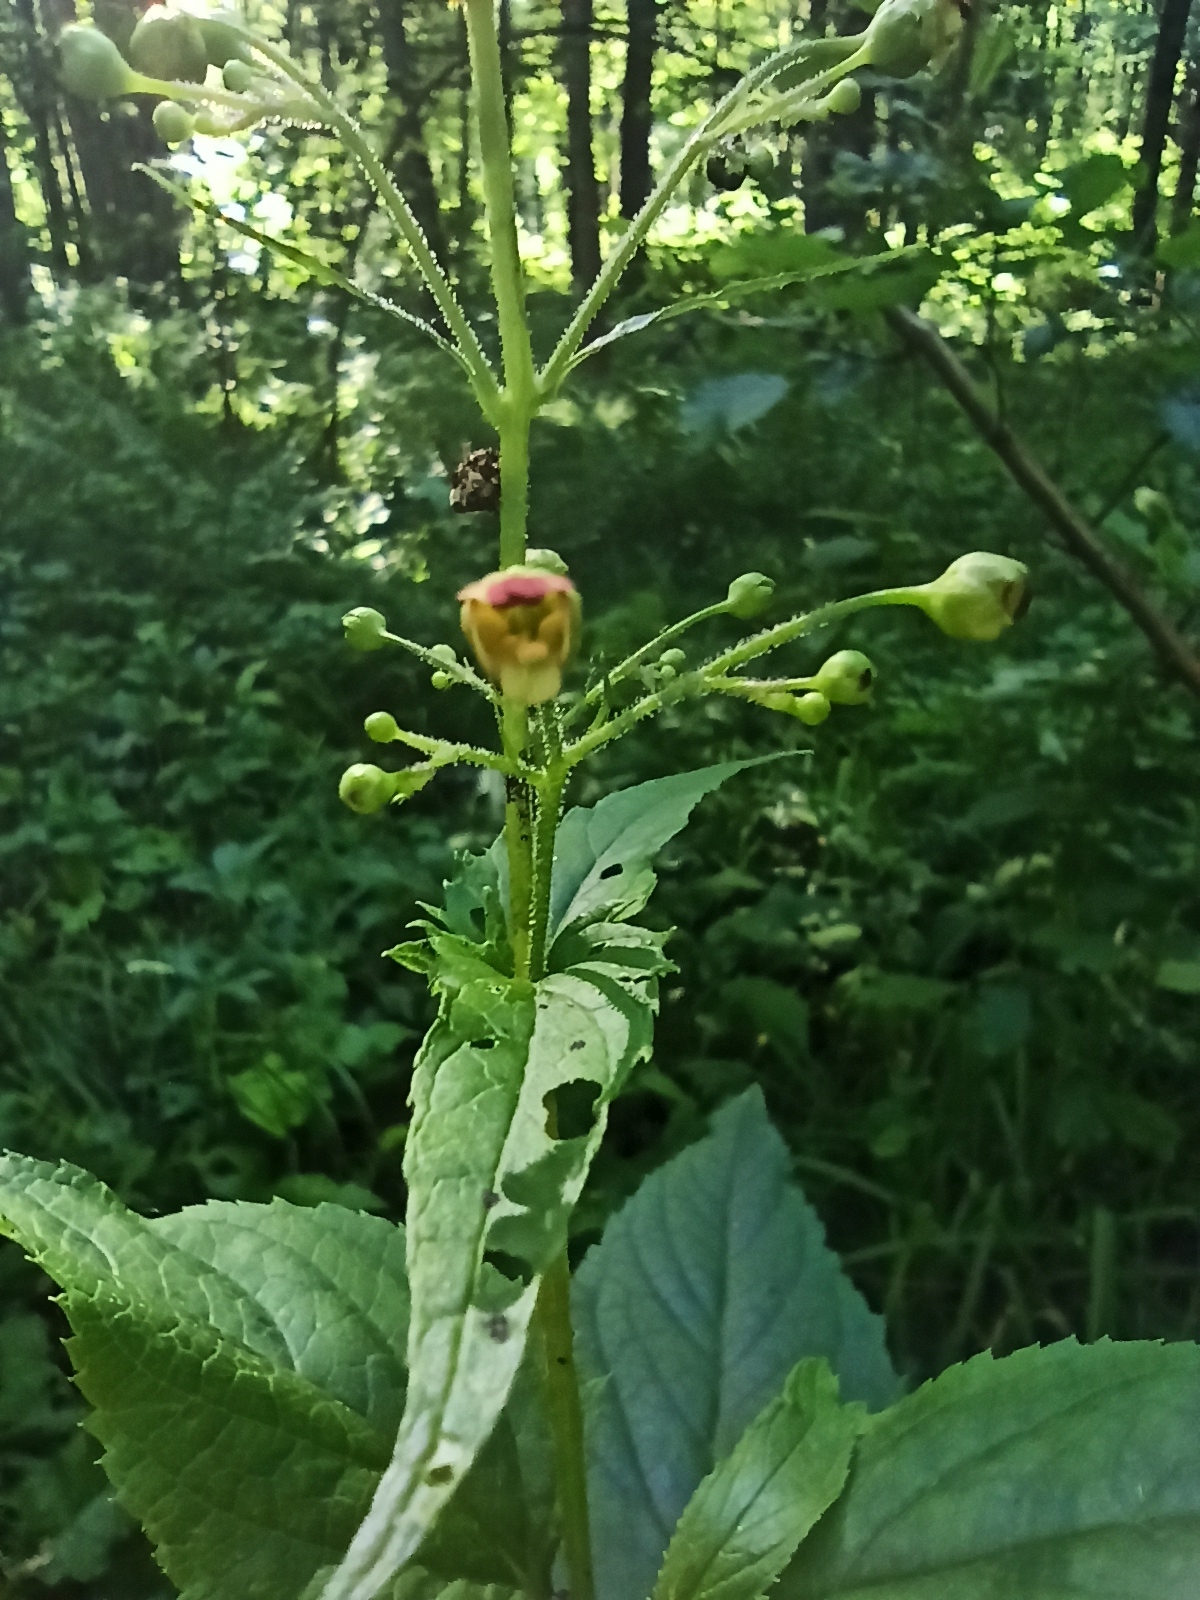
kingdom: Plantae
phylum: Tracheophyta
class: Magnoliopsida
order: Lamiales
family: Scrophulariaceae
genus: Scrophularia
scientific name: Scrophularia nodosa
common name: Common figwort
